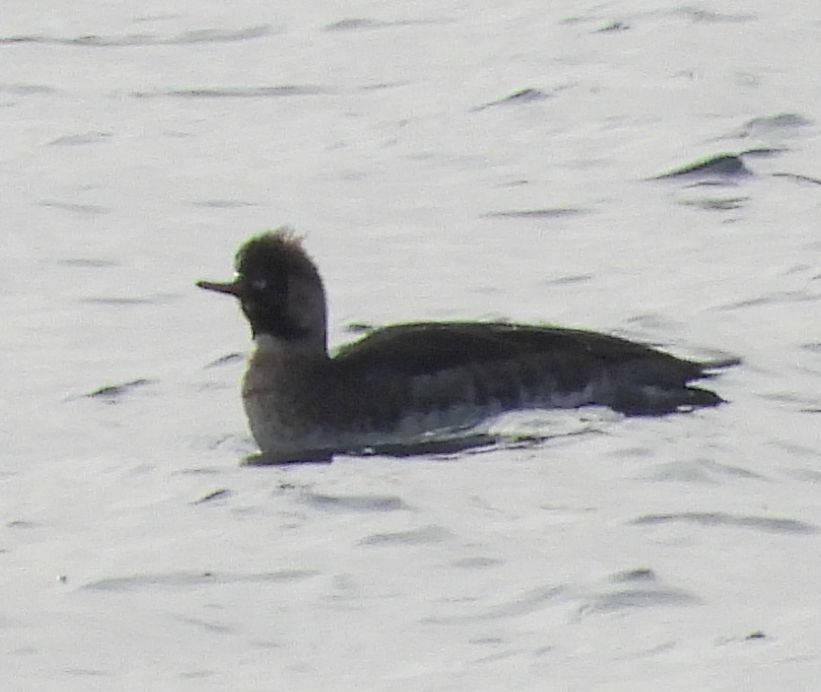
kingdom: Animalia
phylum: Chordata
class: Aves
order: Anseriformes
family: Anatidae
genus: Mergus
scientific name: Mergus serrator
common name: Red-breasted merganser
